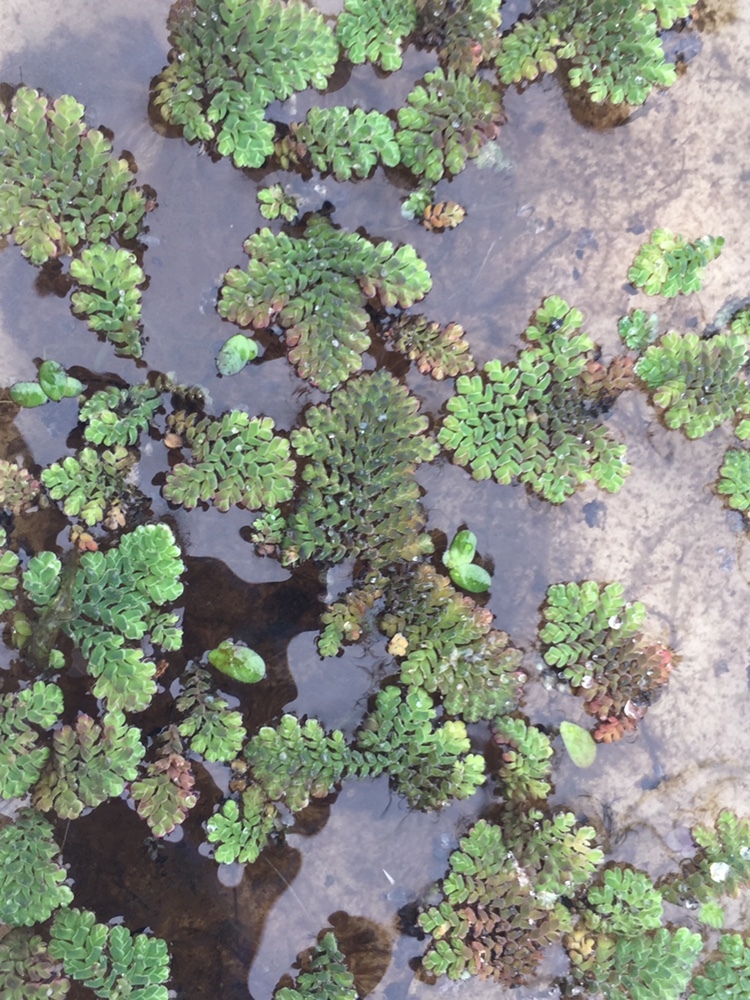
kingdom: Plantae
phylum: Tracheophyta
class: Polypodiopsida
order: Salviniales
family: Salviniaceae
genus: Azolla
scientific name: Azolla pinnata
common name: Ferny azolla
